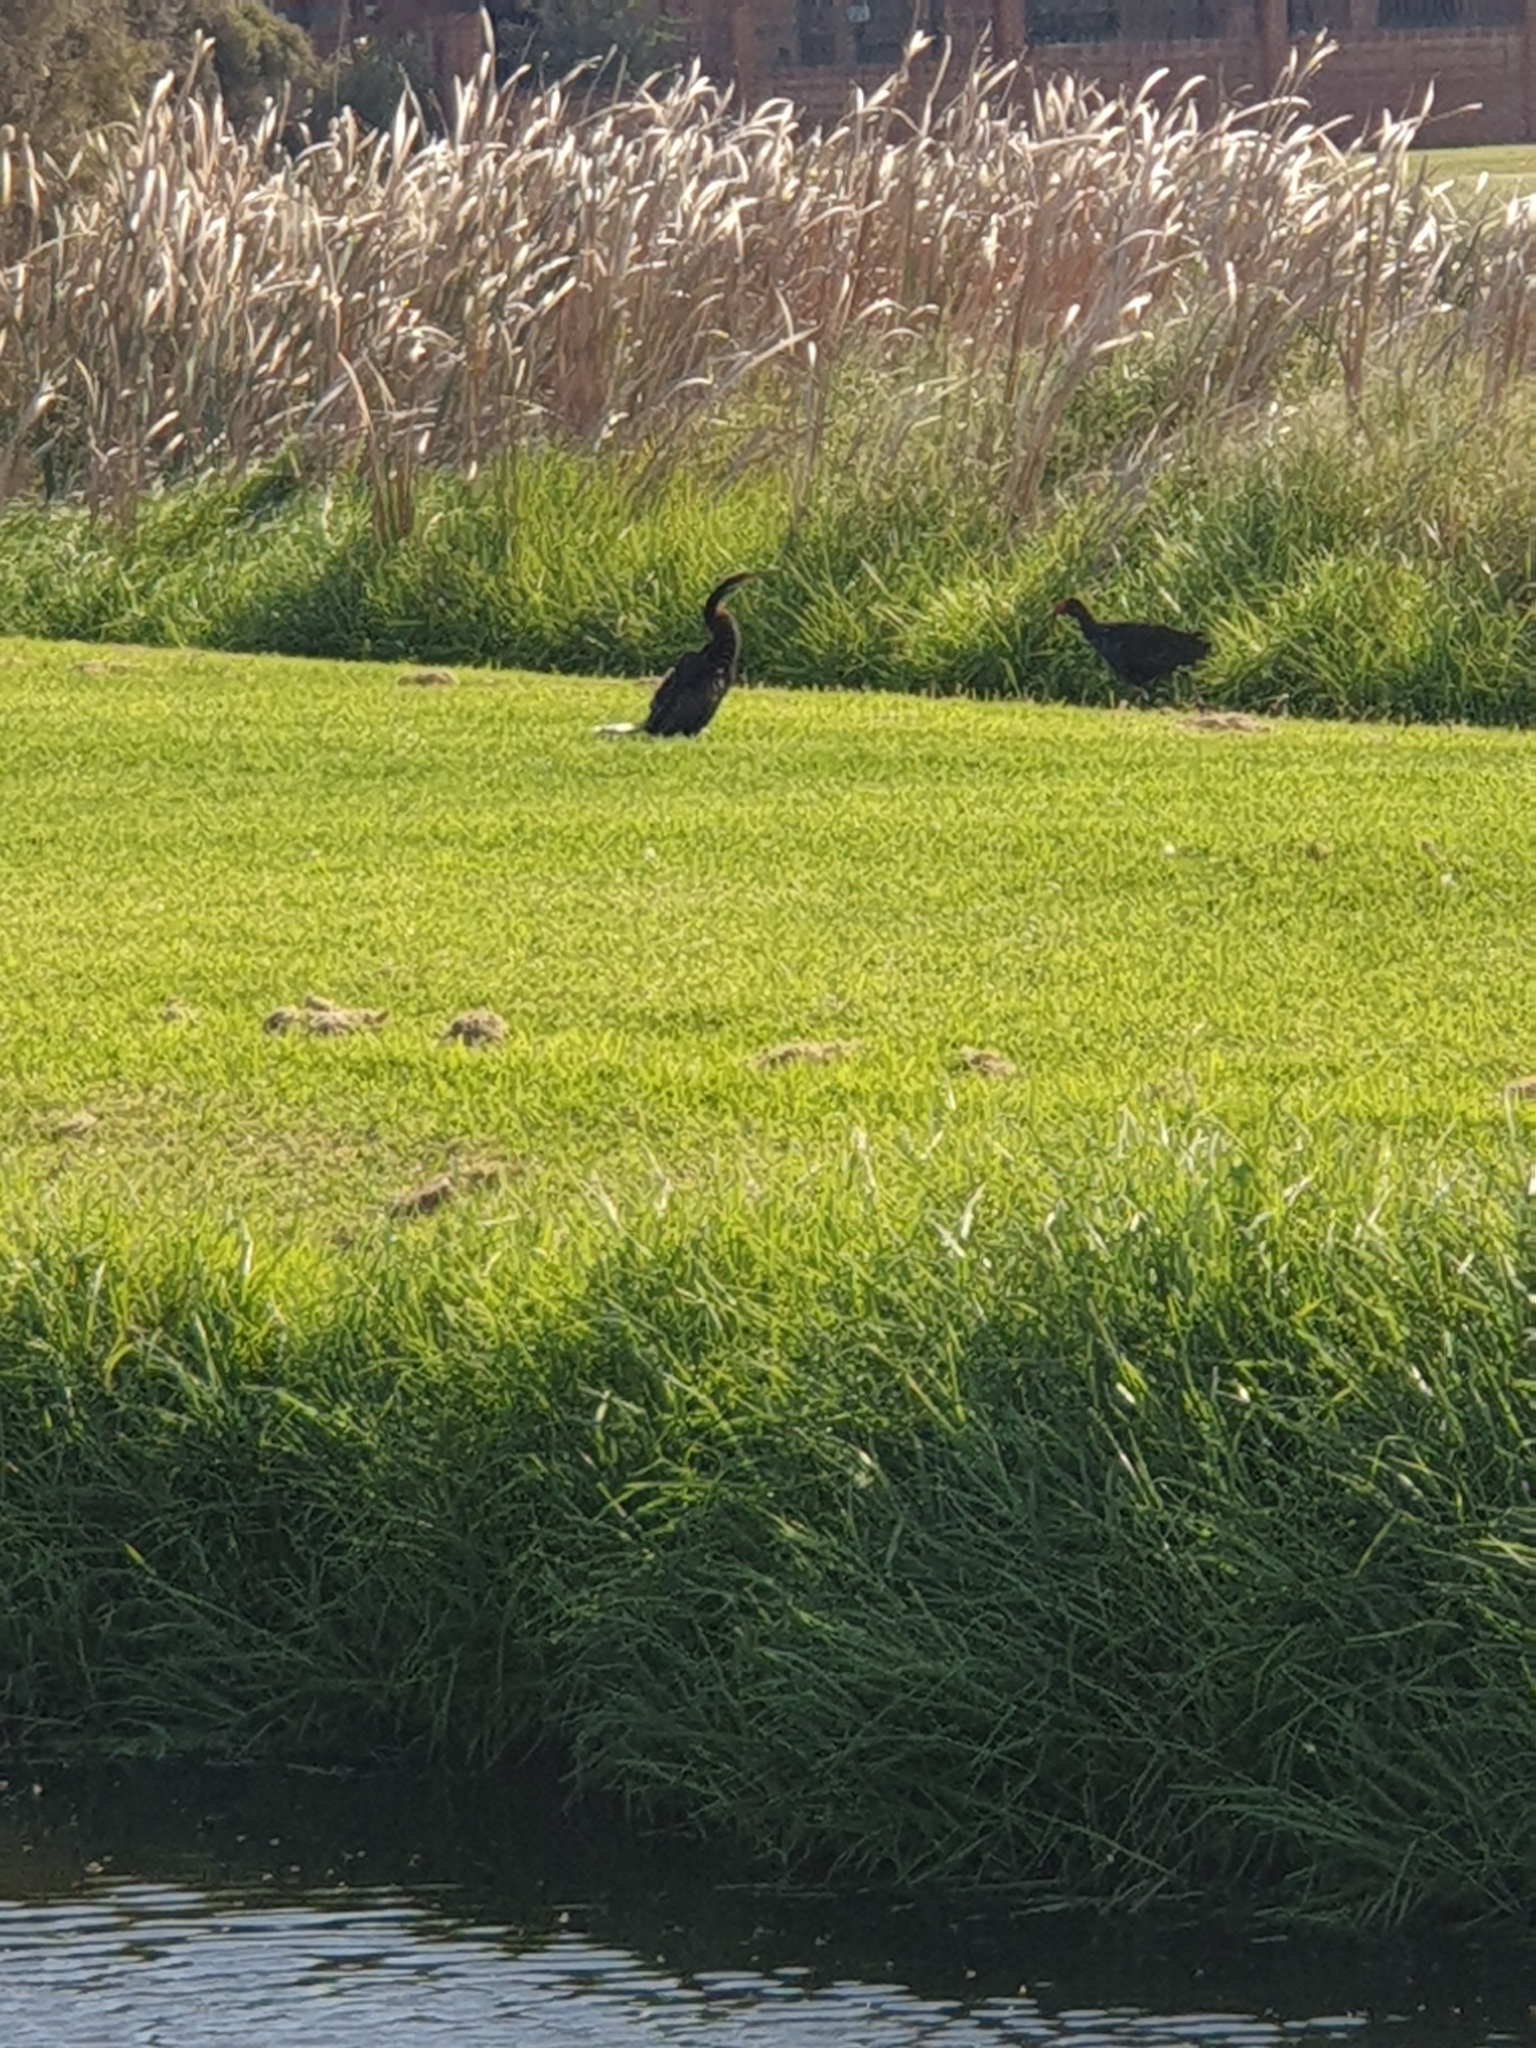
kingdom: Animalia
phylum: Chordata
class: Aves
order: Suliformes
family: Anhingidae
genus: Anhinga
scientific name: Anhinga novaehollandiae
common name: Australasian darter
